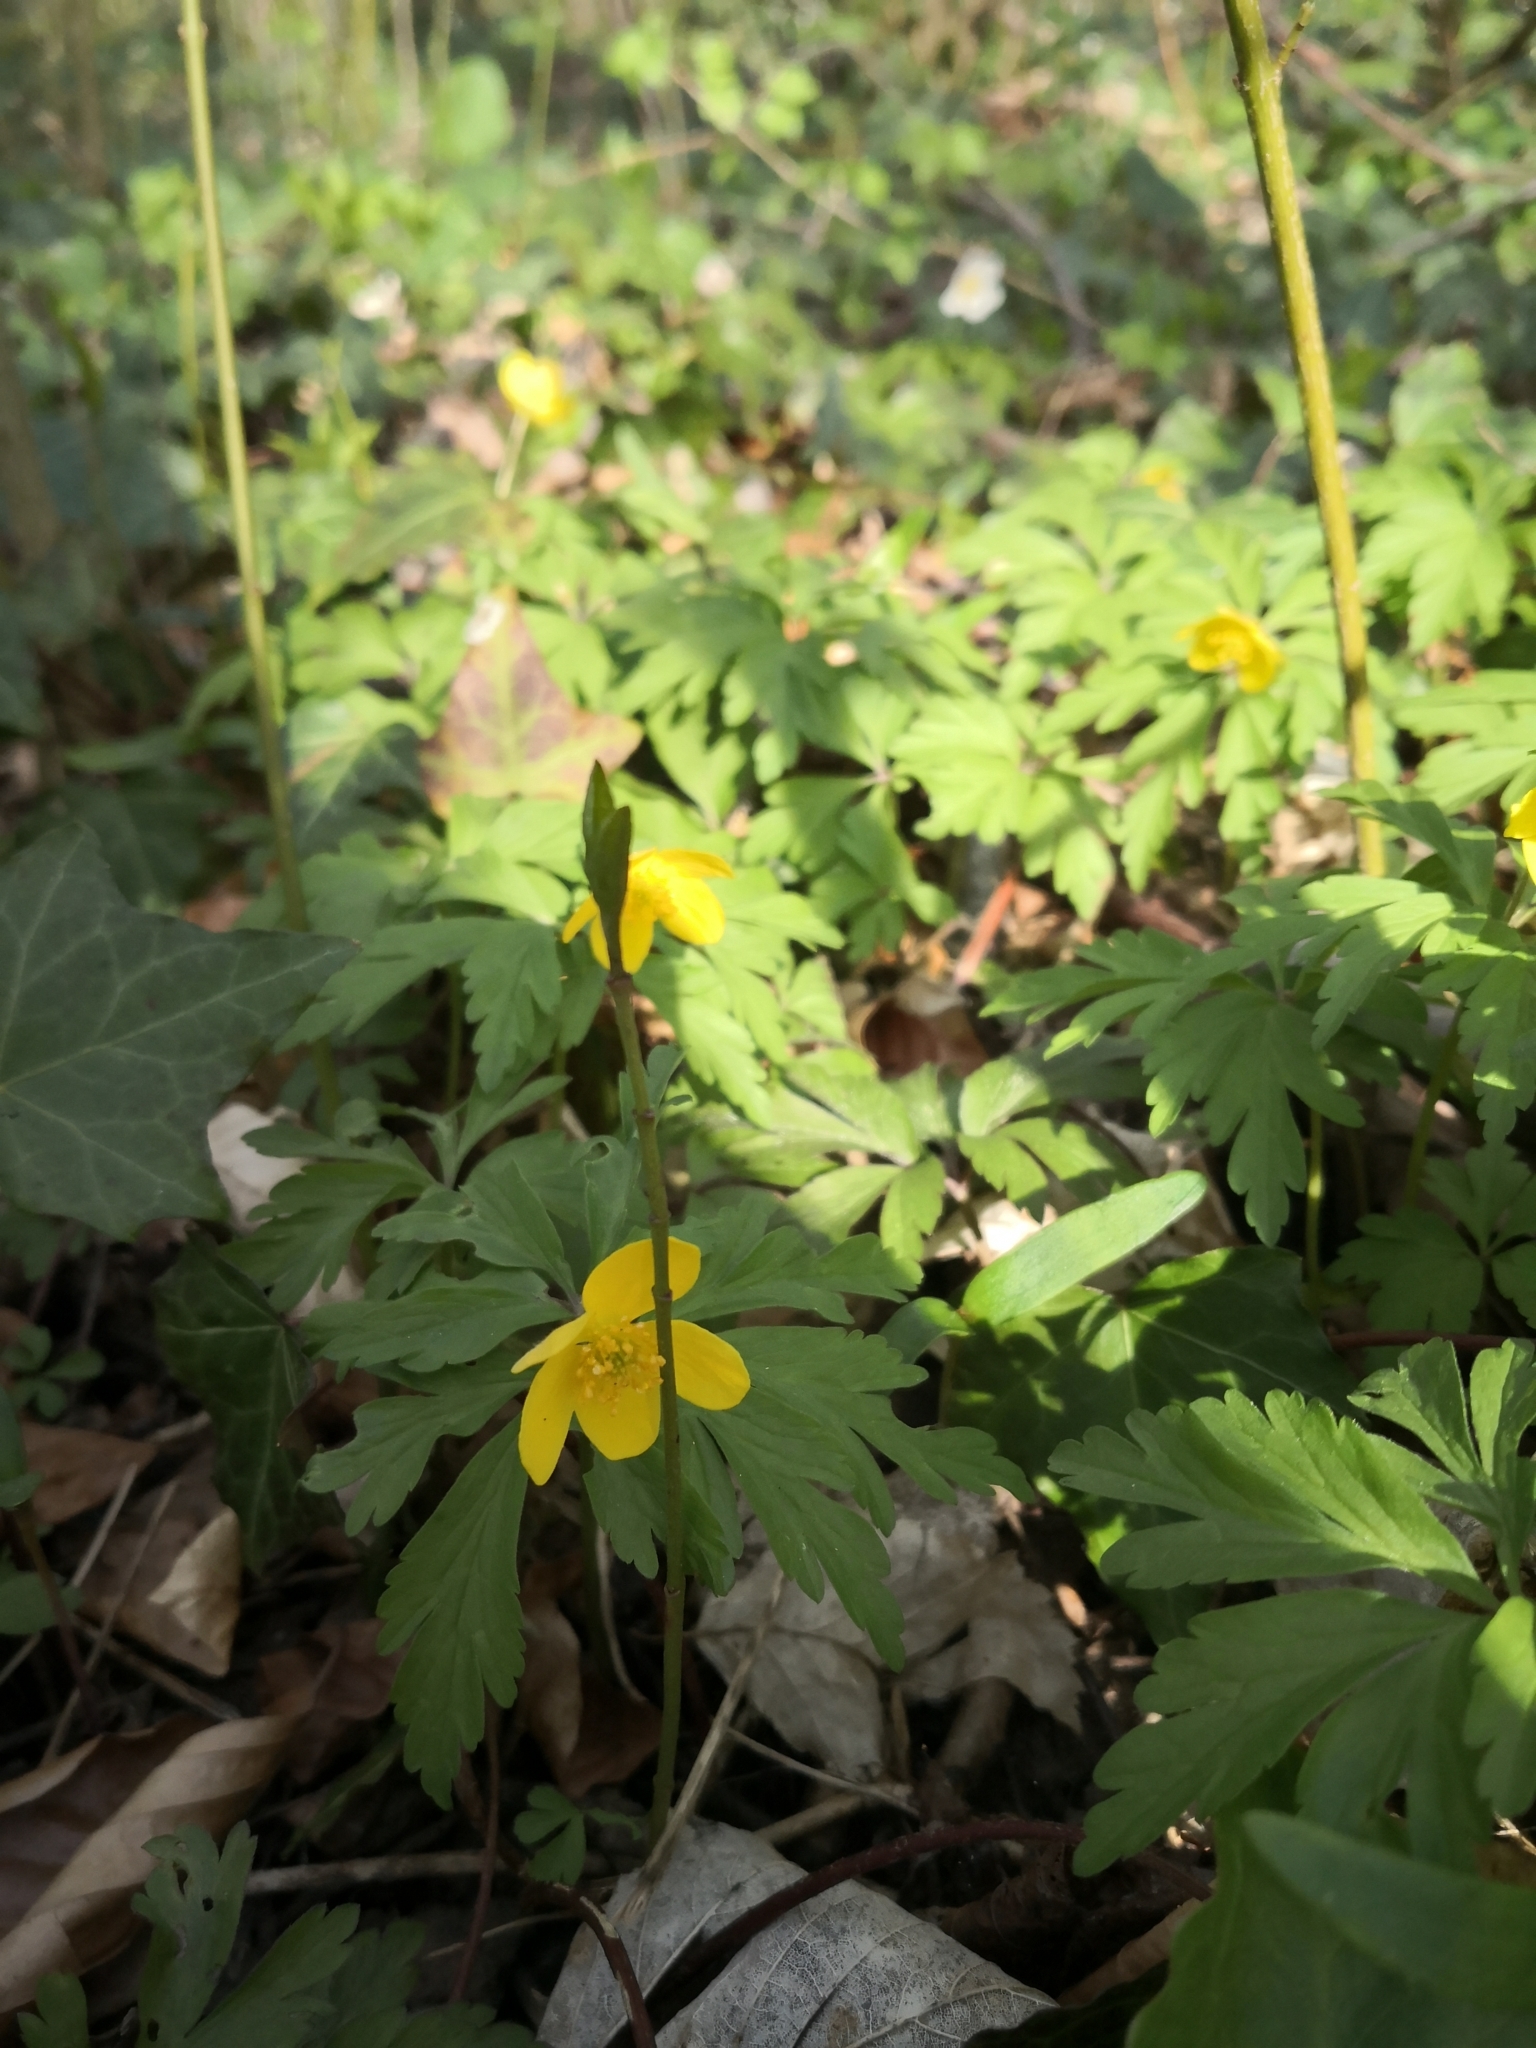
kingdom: Plantae
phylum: Tracheophyta
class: Magnoliopsida
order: Ranunculales
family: Ranunculaceae
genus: Anemone
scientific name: Anemone ranunculoides
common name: Yellow anemone
